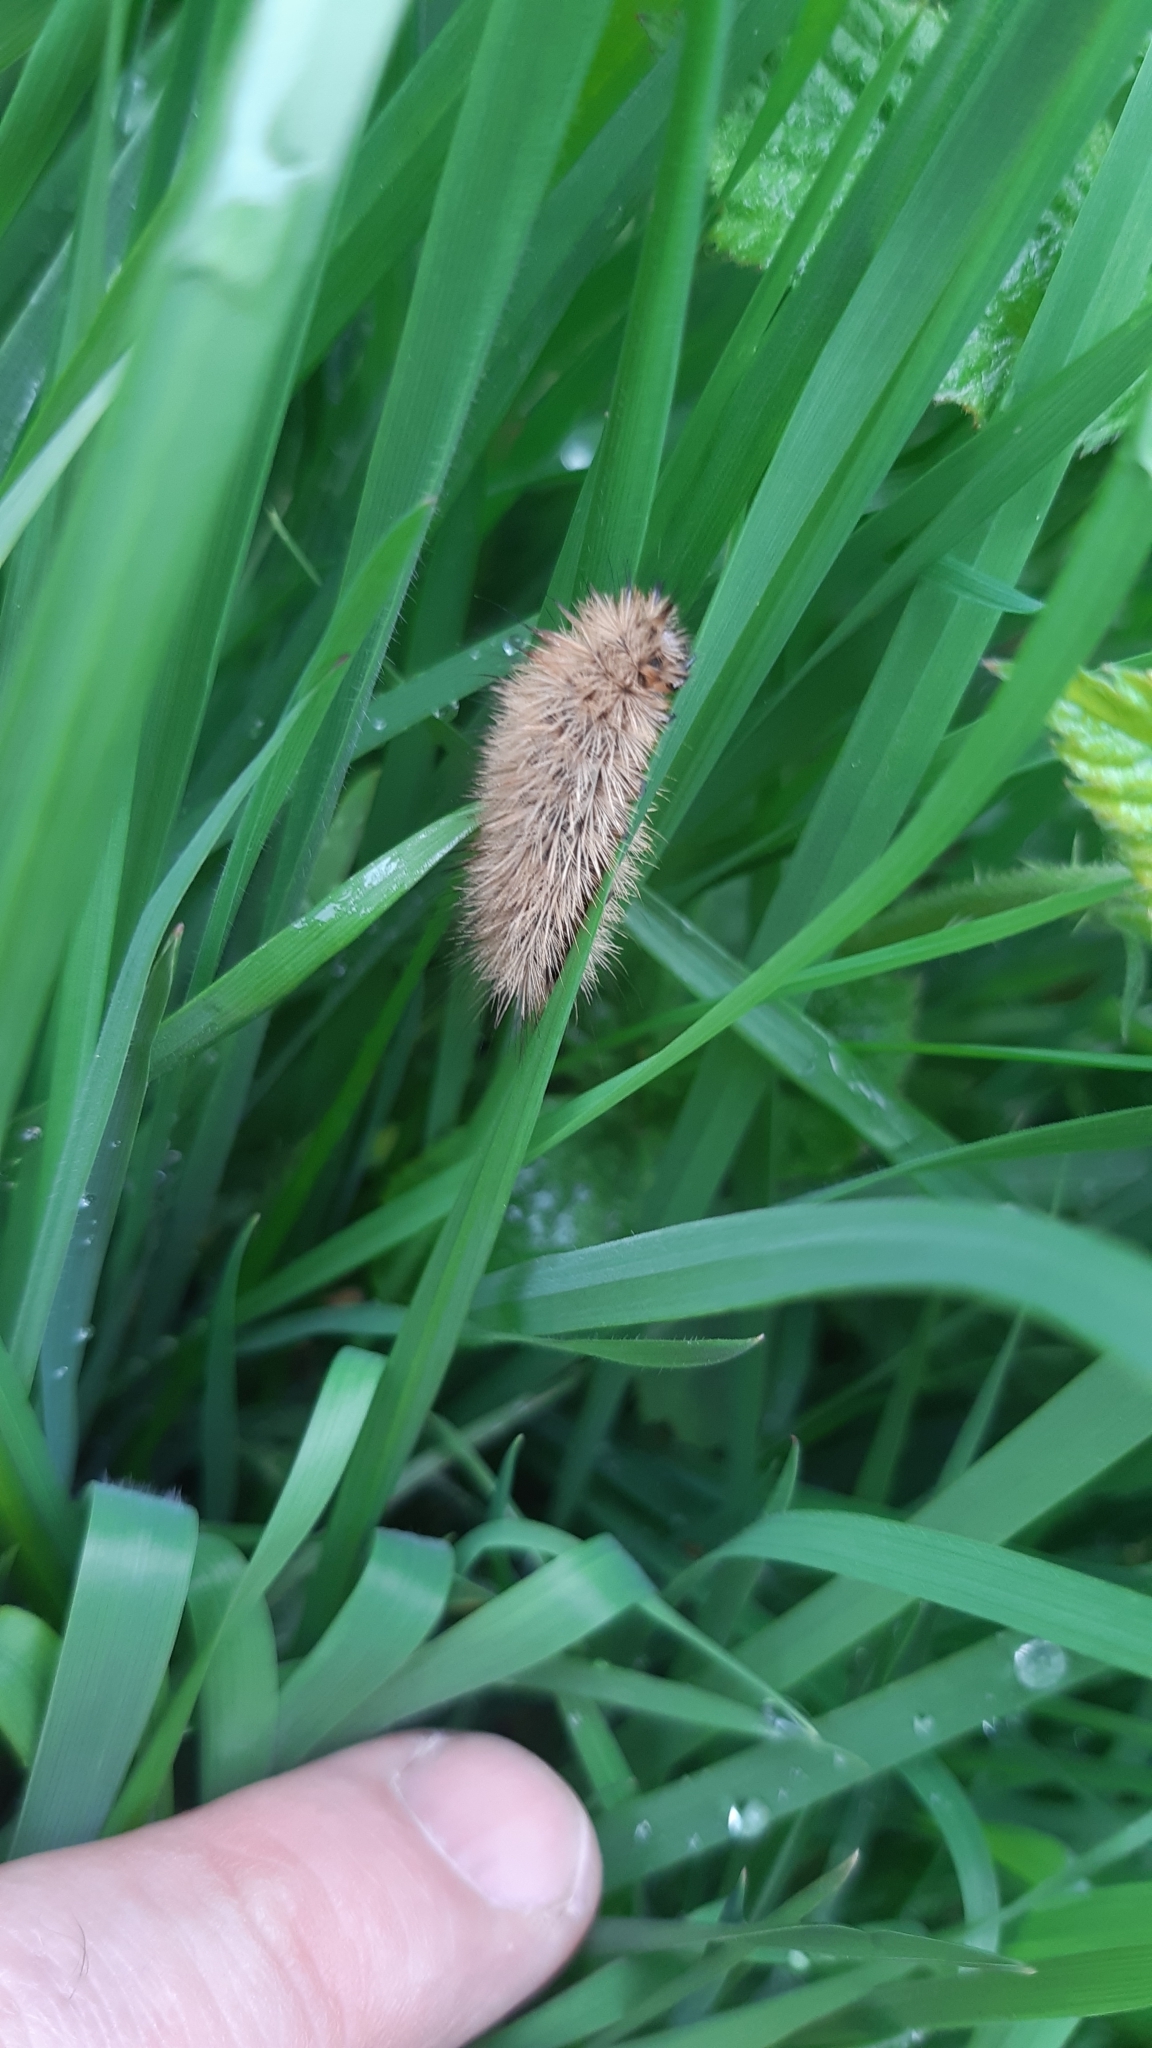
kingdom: Animalia
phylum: Arthropoda
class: Insecta
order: Lepidoptera
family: Erebidae
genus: Phragmatobia
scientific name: Phragmatobia fuliginosa
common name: Ruby tiger
